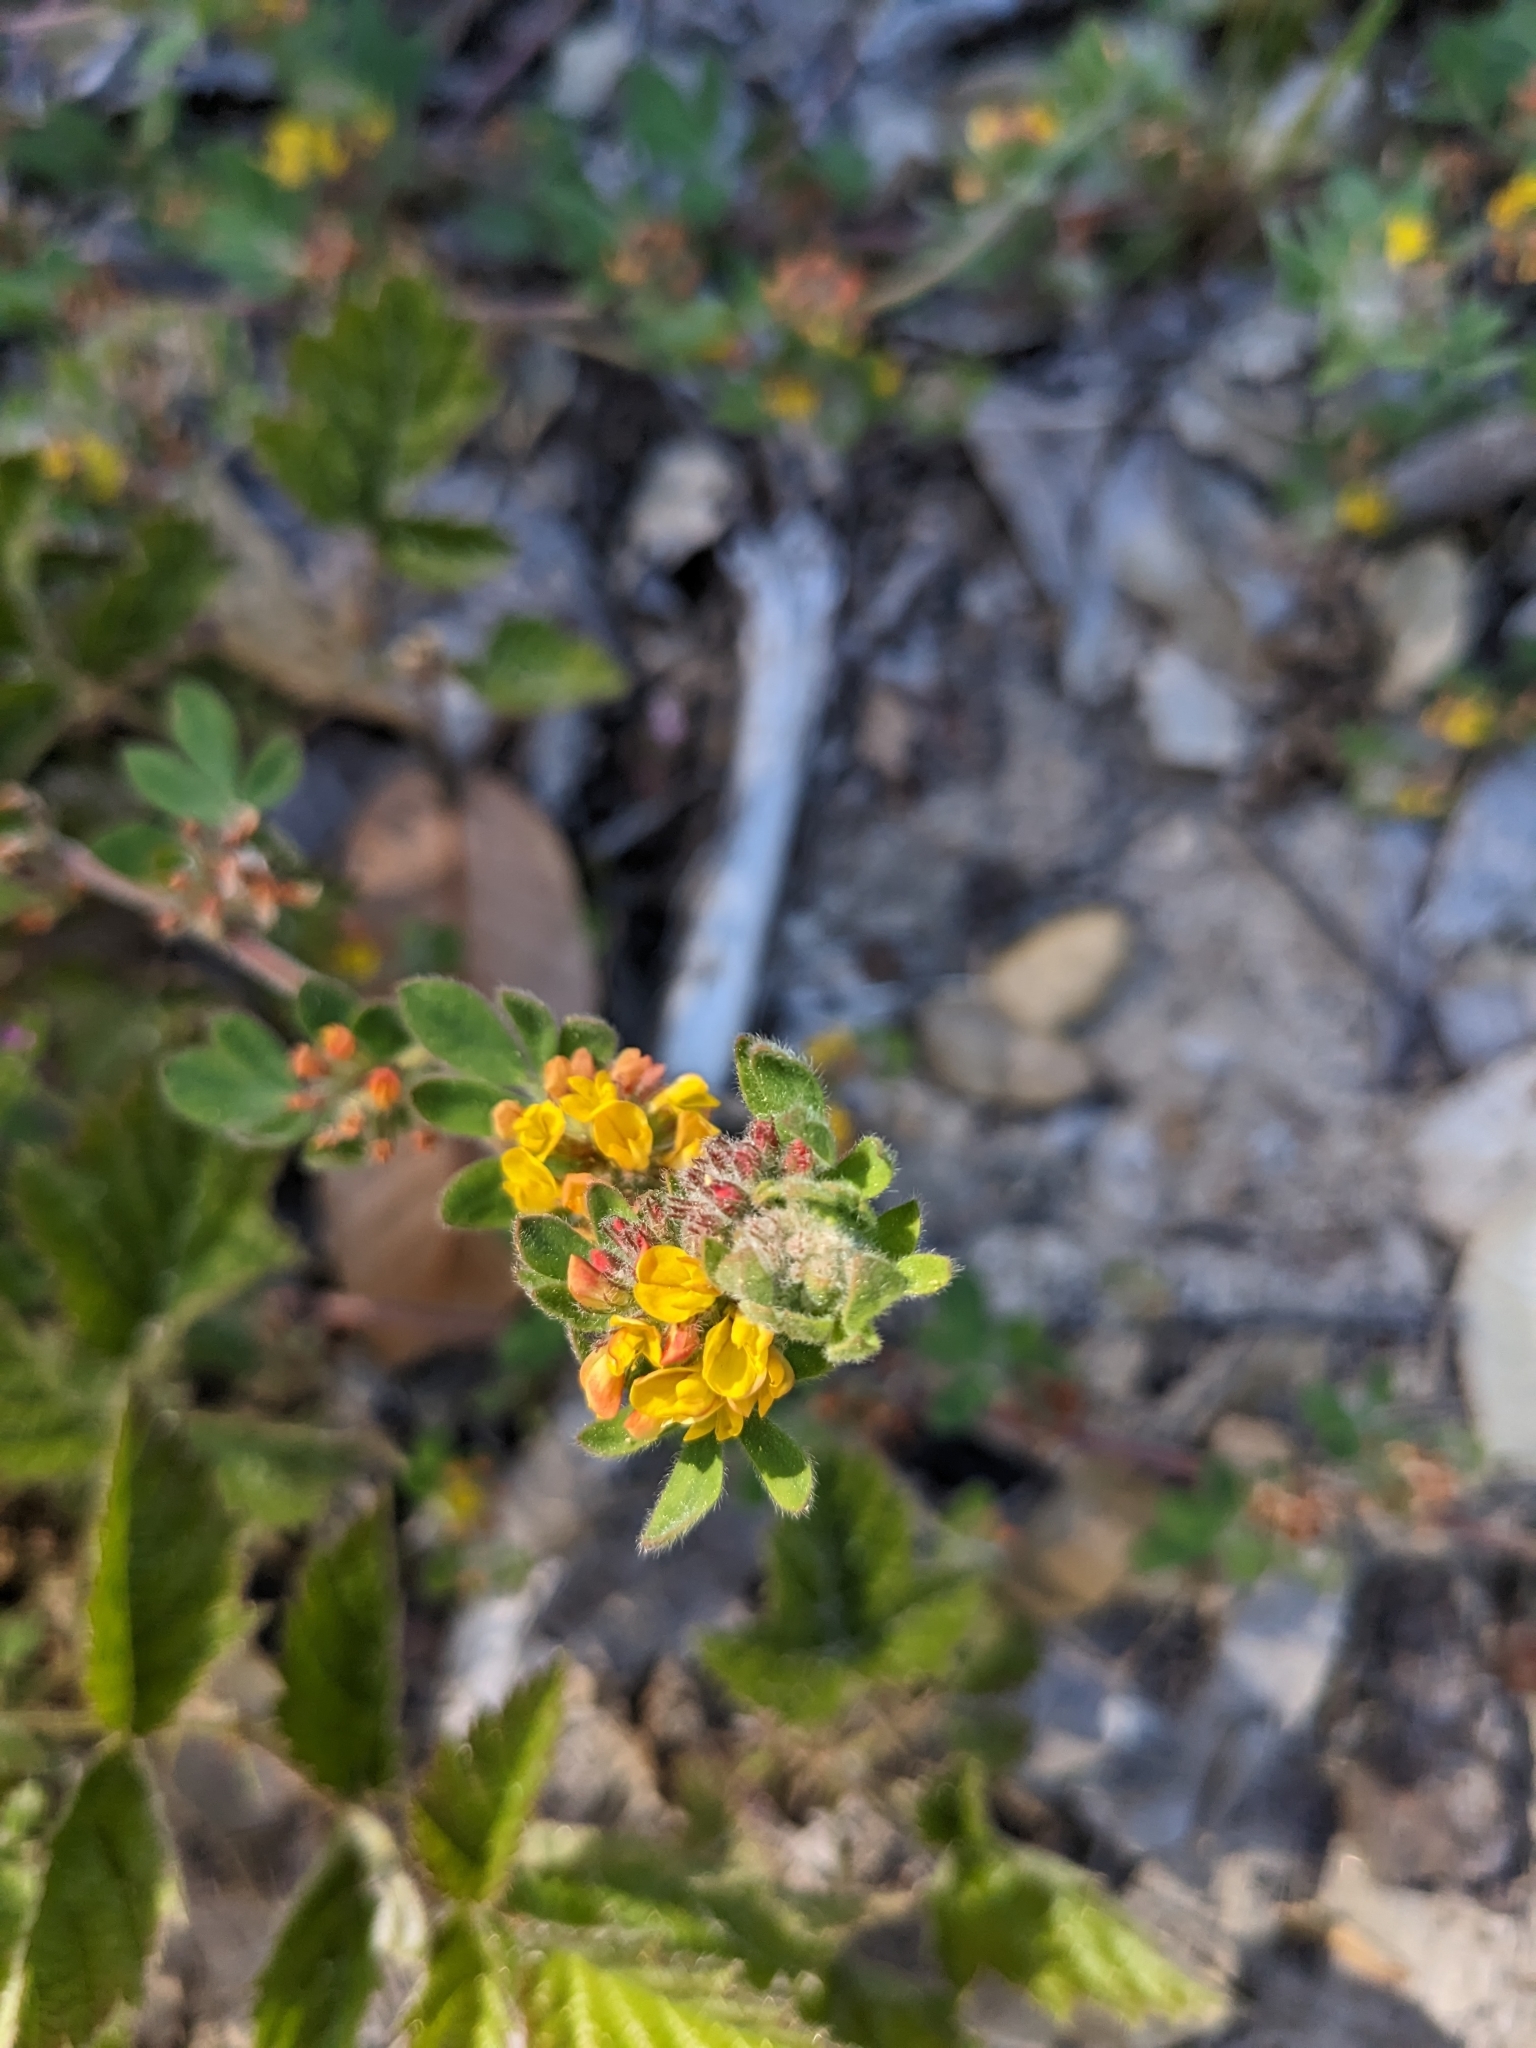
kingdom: Plantae
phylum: Tracheophyta
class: Magnoliopsida
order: Fabales
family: Fabaceae
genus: Acmispon
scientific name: Acmispon tomentosus
